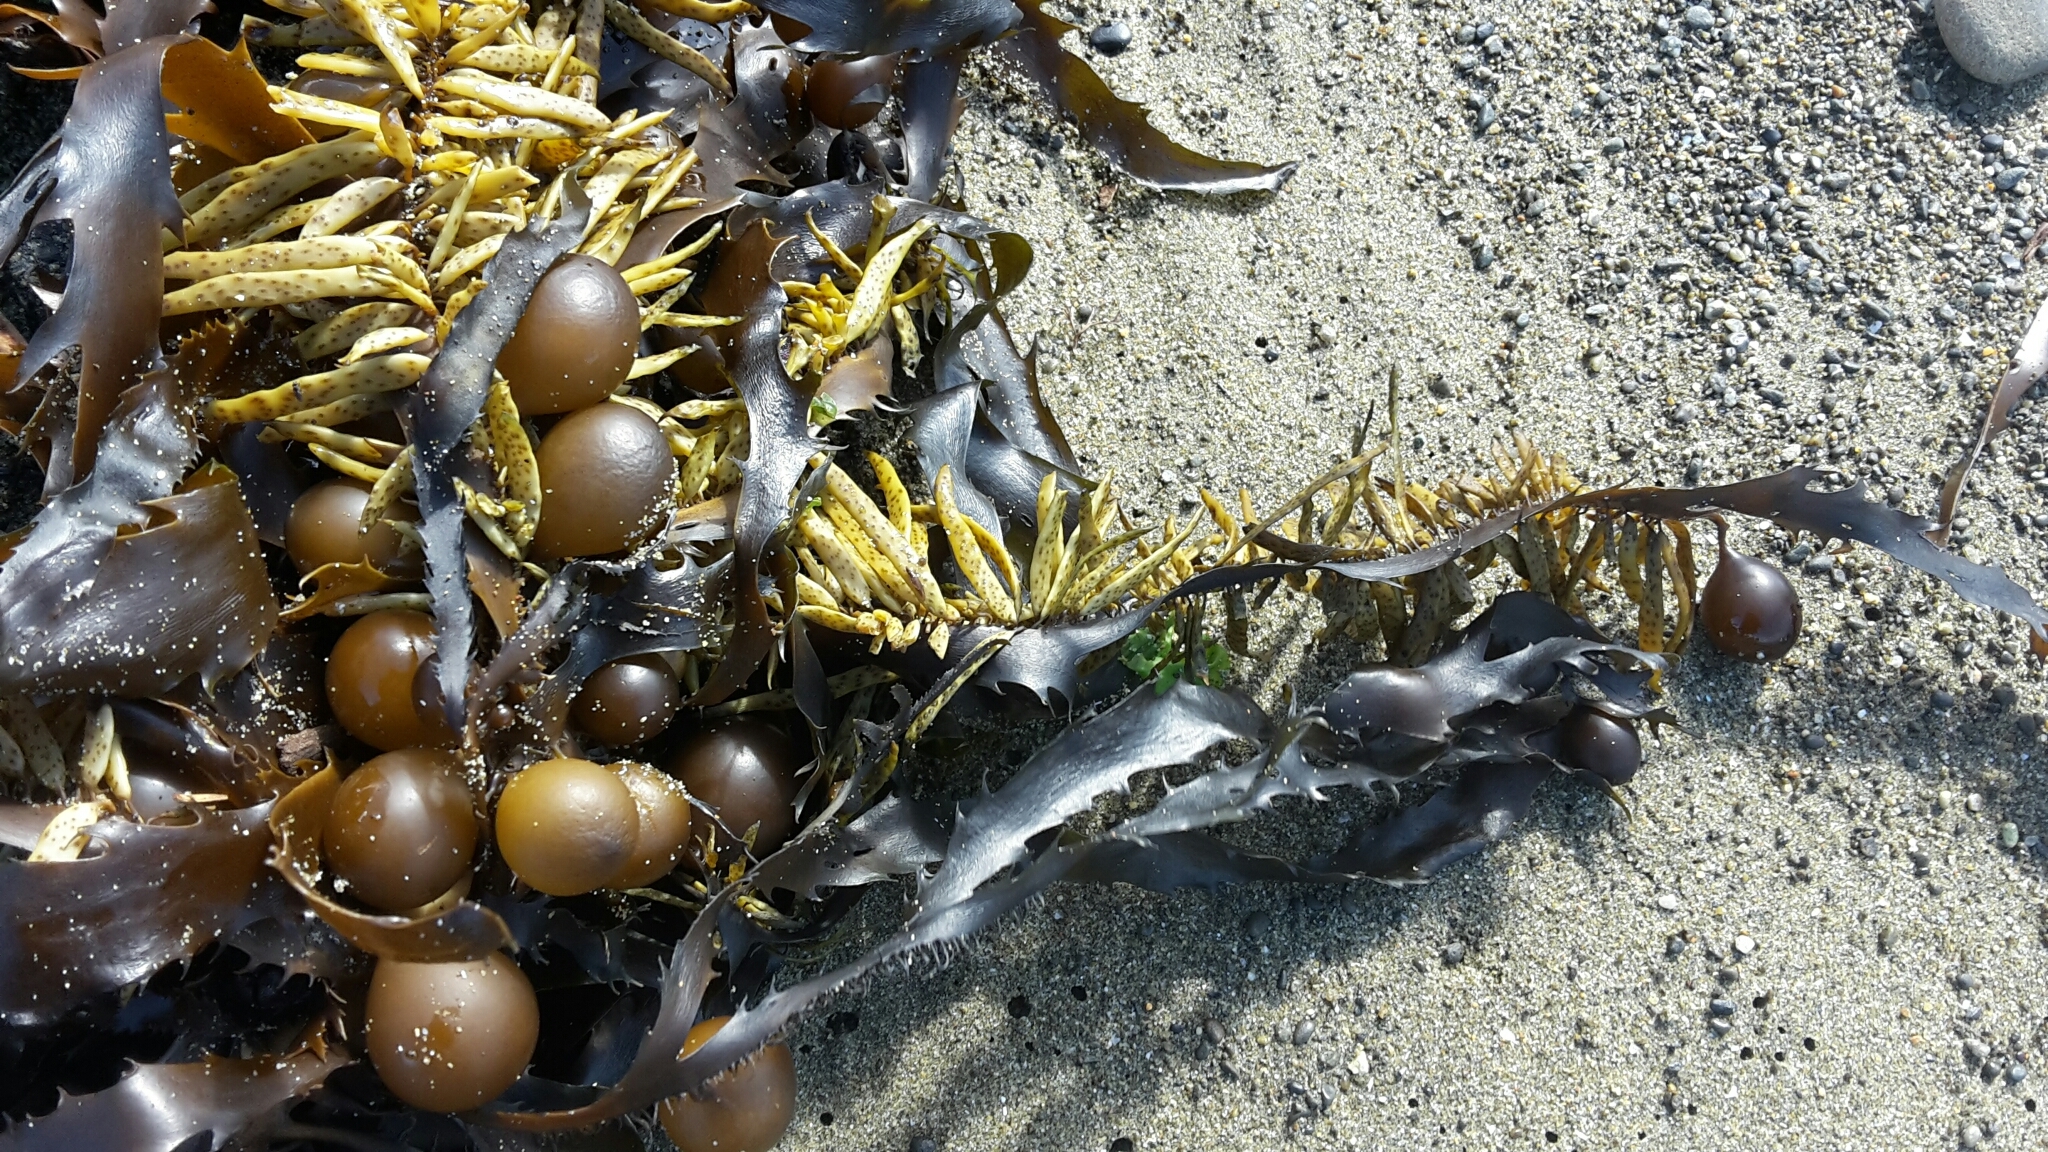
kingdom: Chromista
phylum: Ochrophyta
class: Phaeophyceae
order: Fucales
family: Seirococcaceae
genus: Marginariella
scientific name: Marginariella urvilliana
